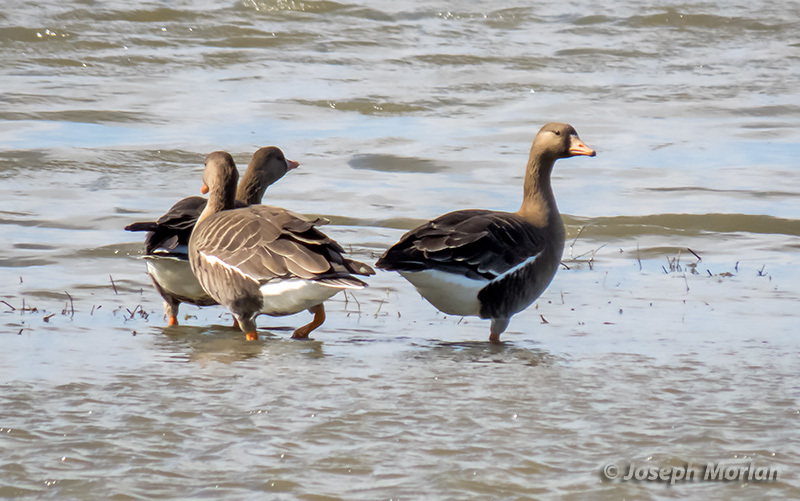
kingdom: Animalia
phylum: Chordata
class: Aves
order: Anseriformes
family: Anatidae
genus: Anser
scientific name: Anser albifrons
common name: Greater white-fronted goose
